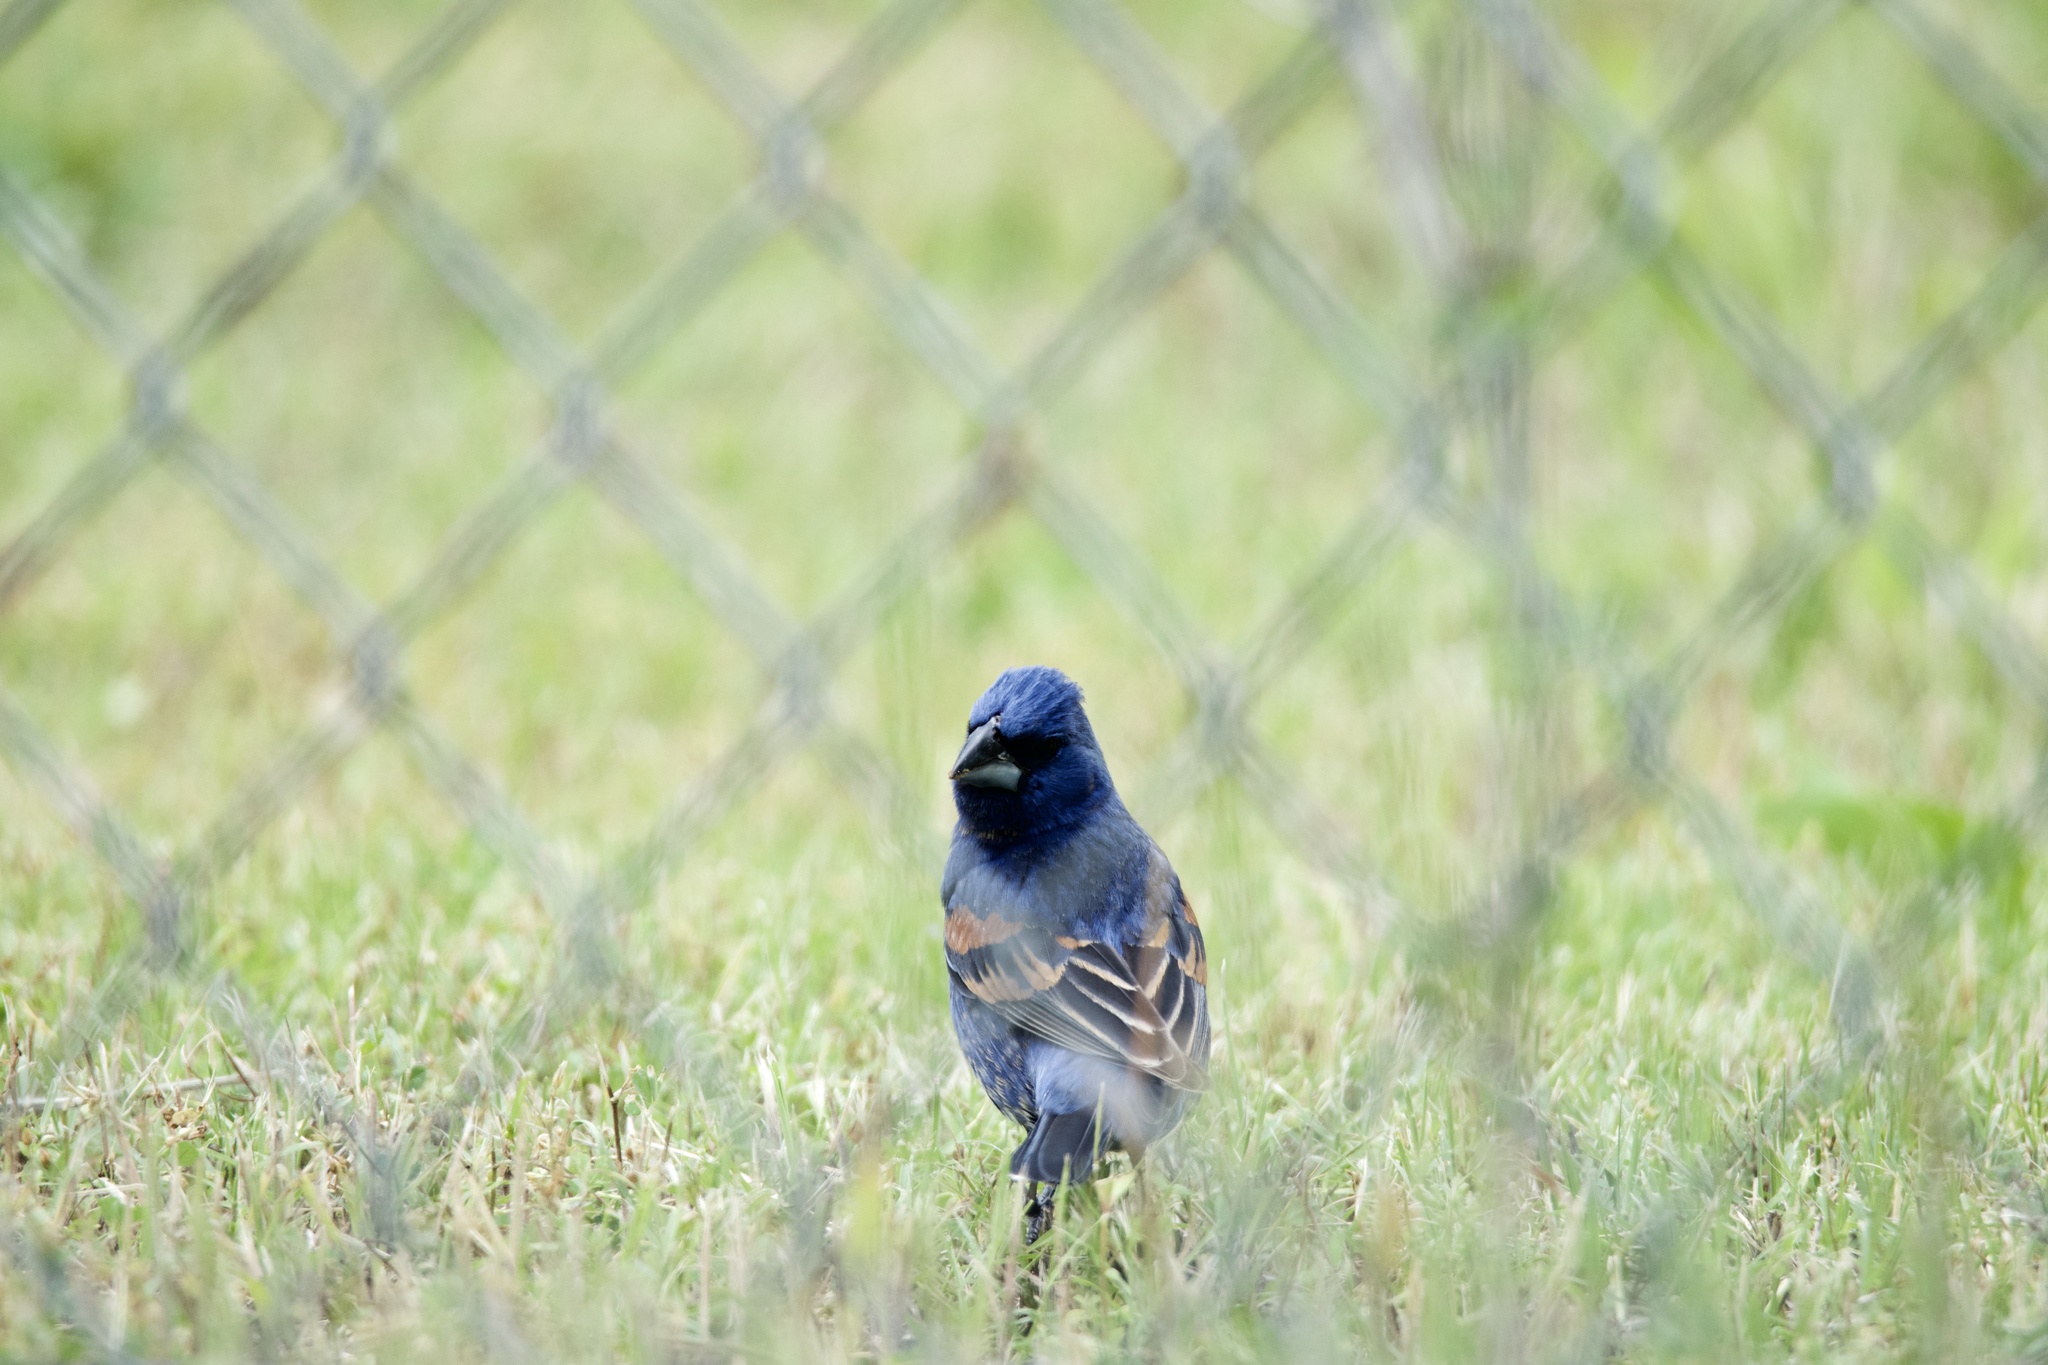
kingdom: Animalia
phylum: Chordata
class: Aves
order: Passeriformes
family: Cardinalidae
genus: Passerina
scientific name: Passerina caerulea
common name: Blue grosbeak
